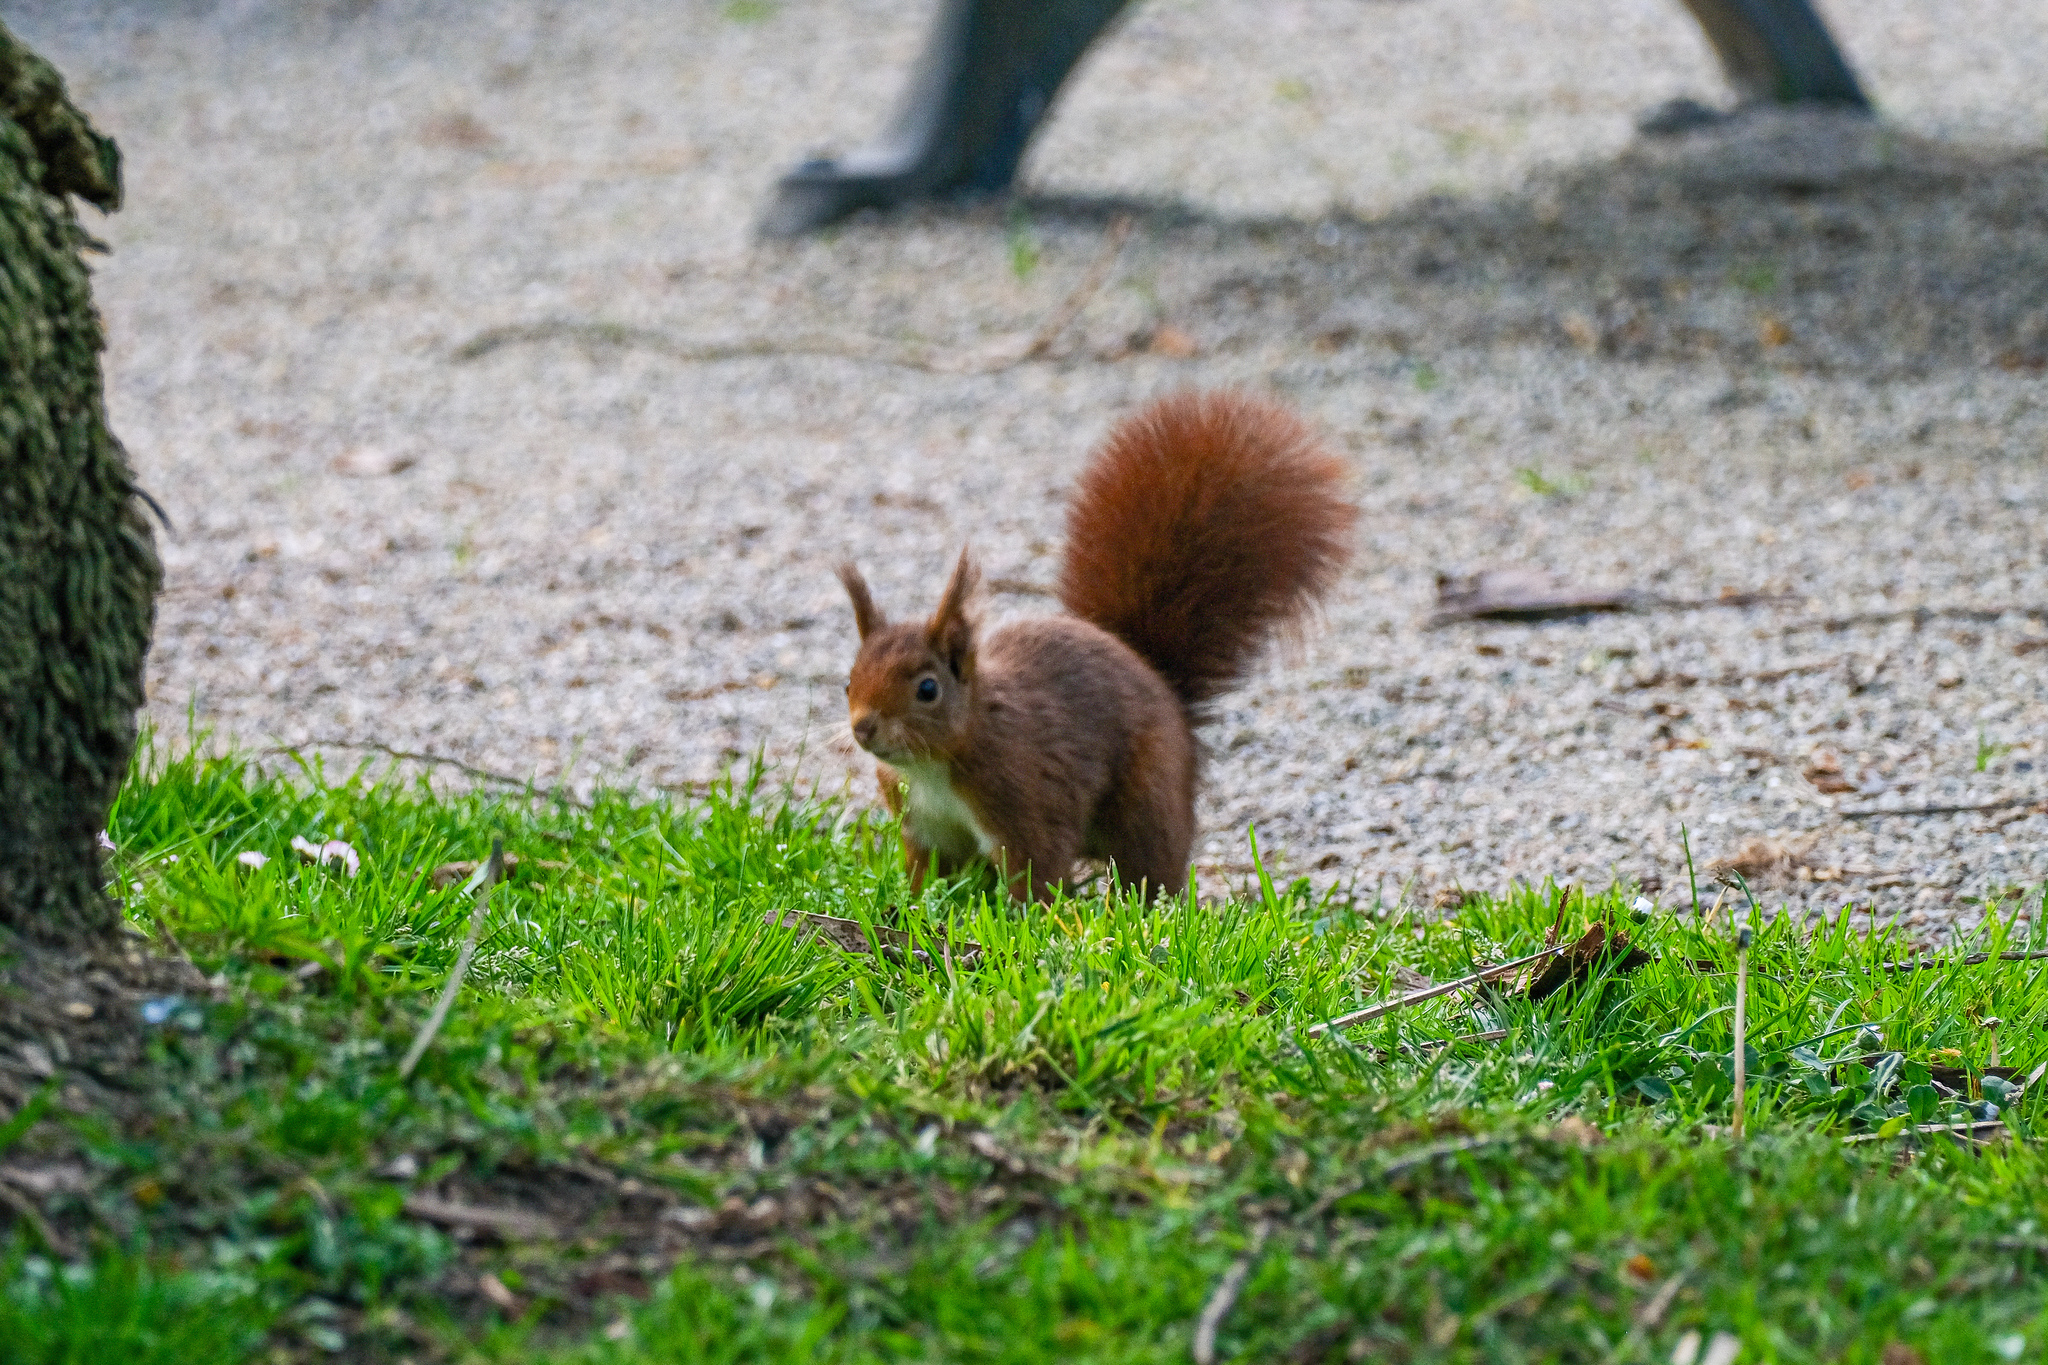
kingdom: Animalia
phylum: Chordata
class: Mammalia
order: Rodentia
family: Sciuridae
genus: Sciurus
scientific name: Sciurus vulgaris
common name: Eurasian red squirrel
